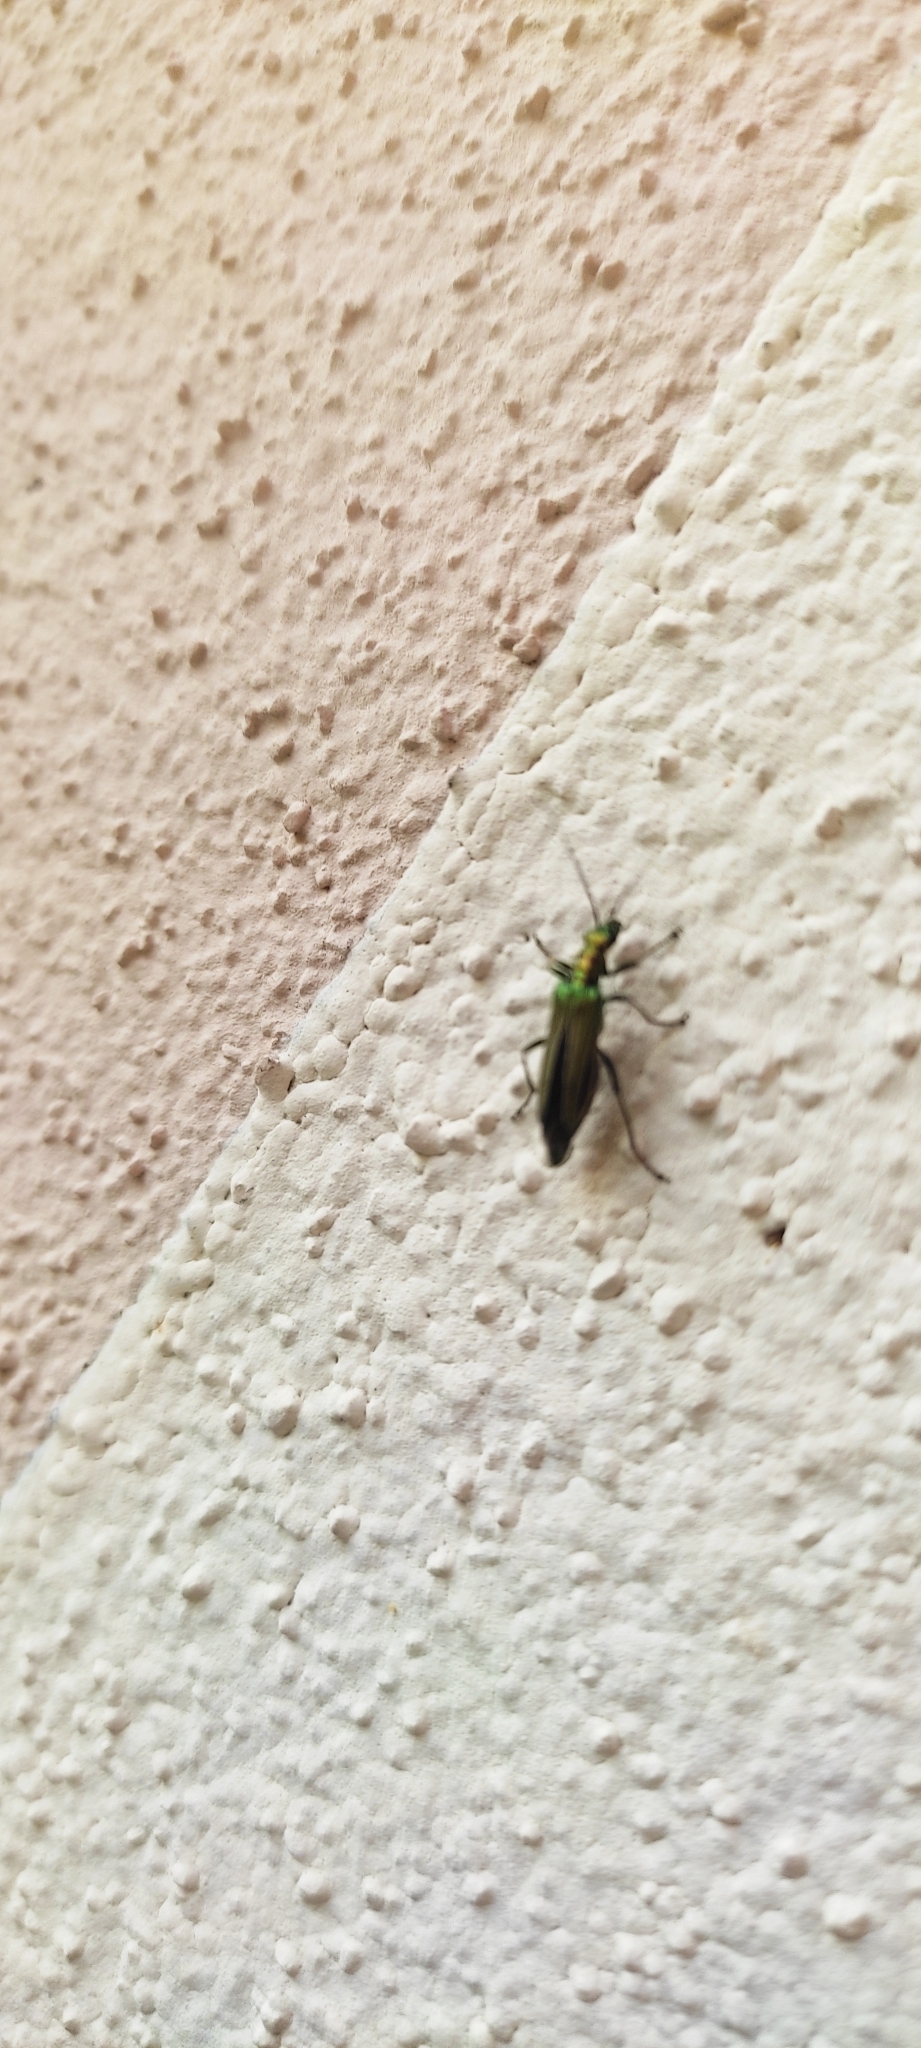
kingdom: Animalia
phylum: Arthropoda
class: Insecta
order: Coleoptera
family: Oedemeridae
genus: Oedemera
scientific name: Oedemera nobilis
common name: Swollen-thighed beetle
